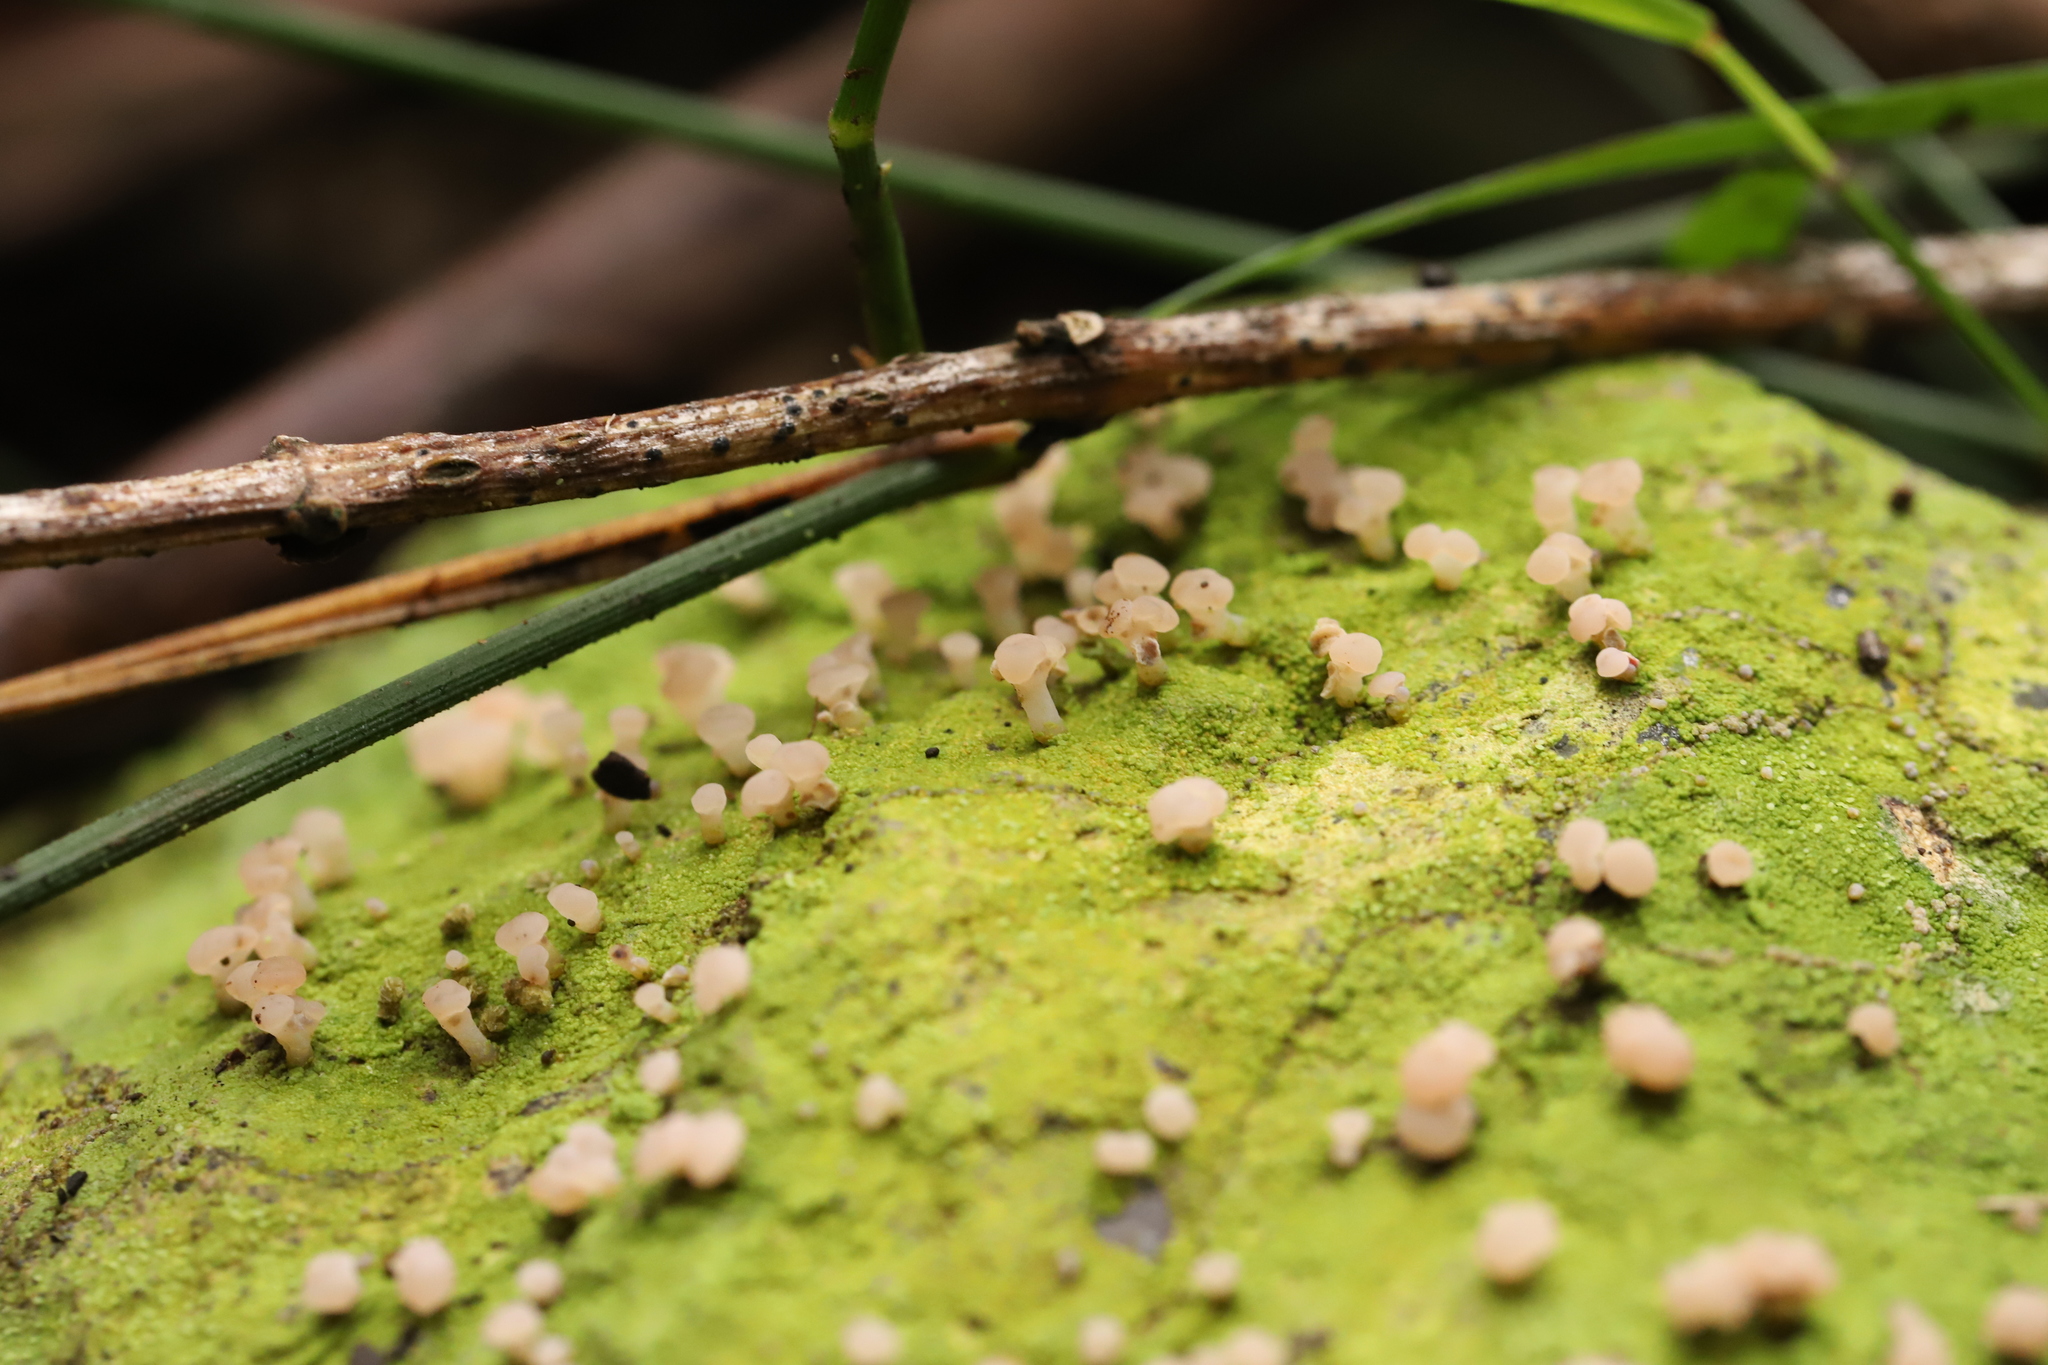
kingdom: Fungi
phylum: Ascomycota
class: Lecanoromycetes
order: Baeomycetales
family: Baeomycetaceae
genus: Baeomyces
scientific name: Baeomyces heteromorphus
